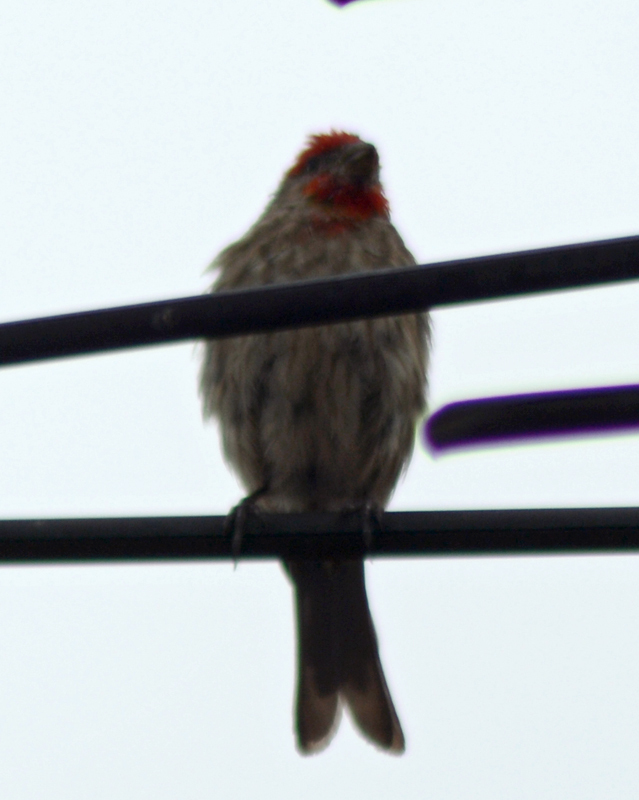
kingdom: Animalia
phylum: Chordata
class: Aves
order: Passeriformes
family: Fringillidae
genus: Haemorhous
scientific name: Haemorhous mexicanus
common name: House finch
